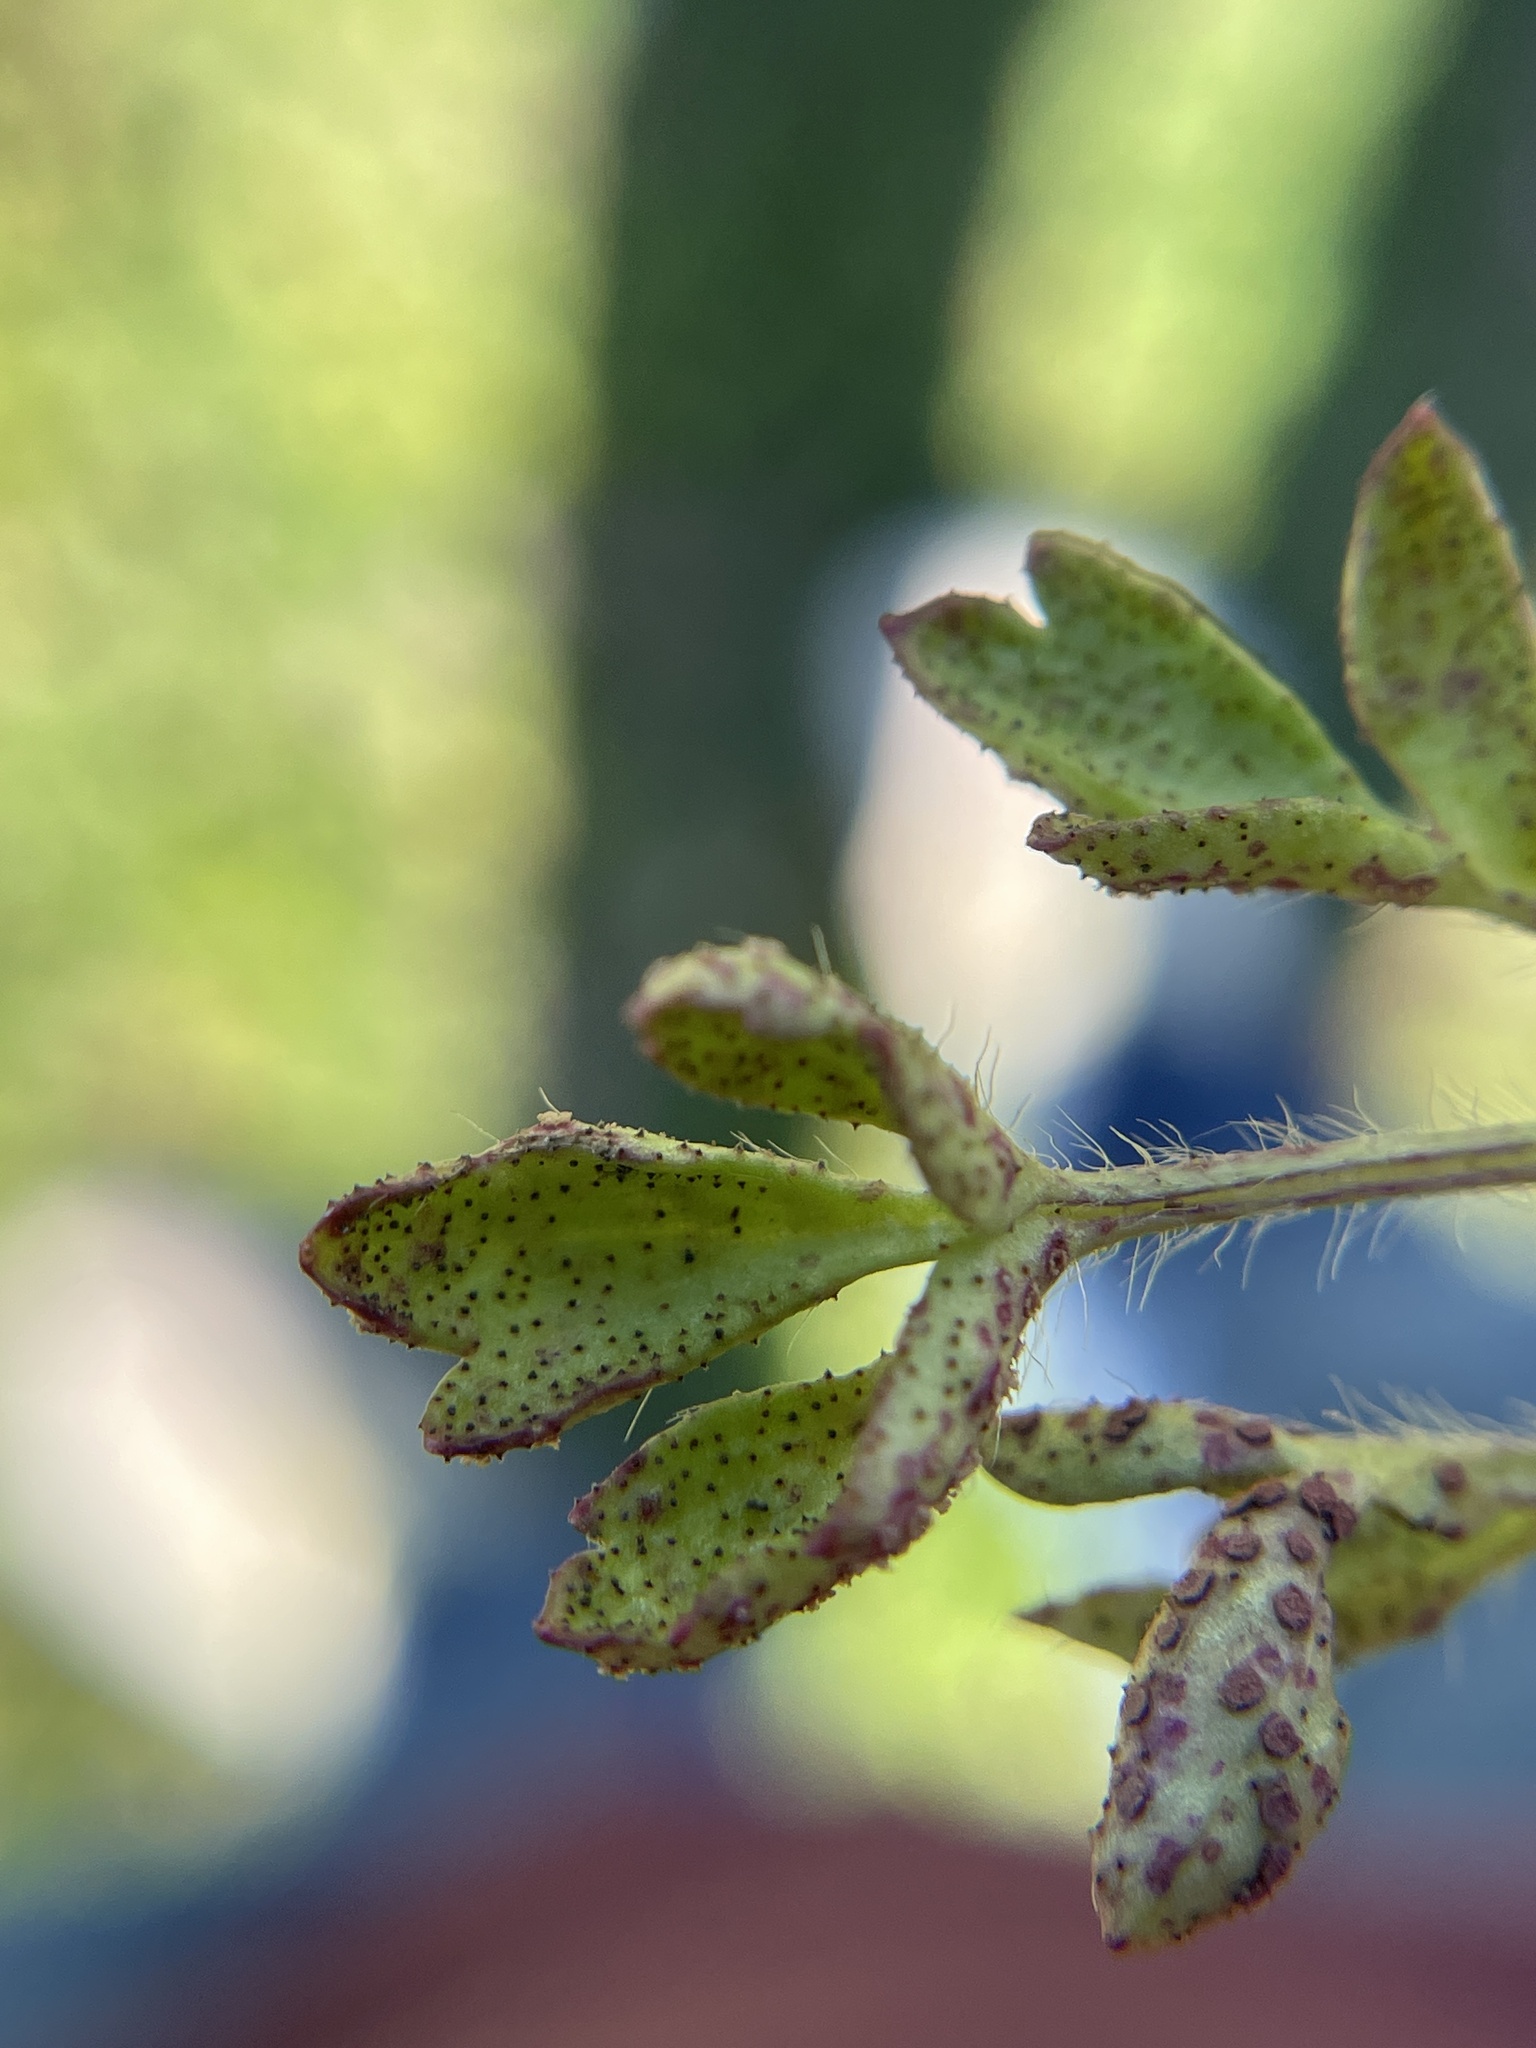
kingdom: Fungi
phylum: Basidiomycota
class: Pucciniomycetes
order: Pucciniales
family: Tranzscheliaceae
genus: Tranzschelia
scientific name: Tranzschelia cohaesa
